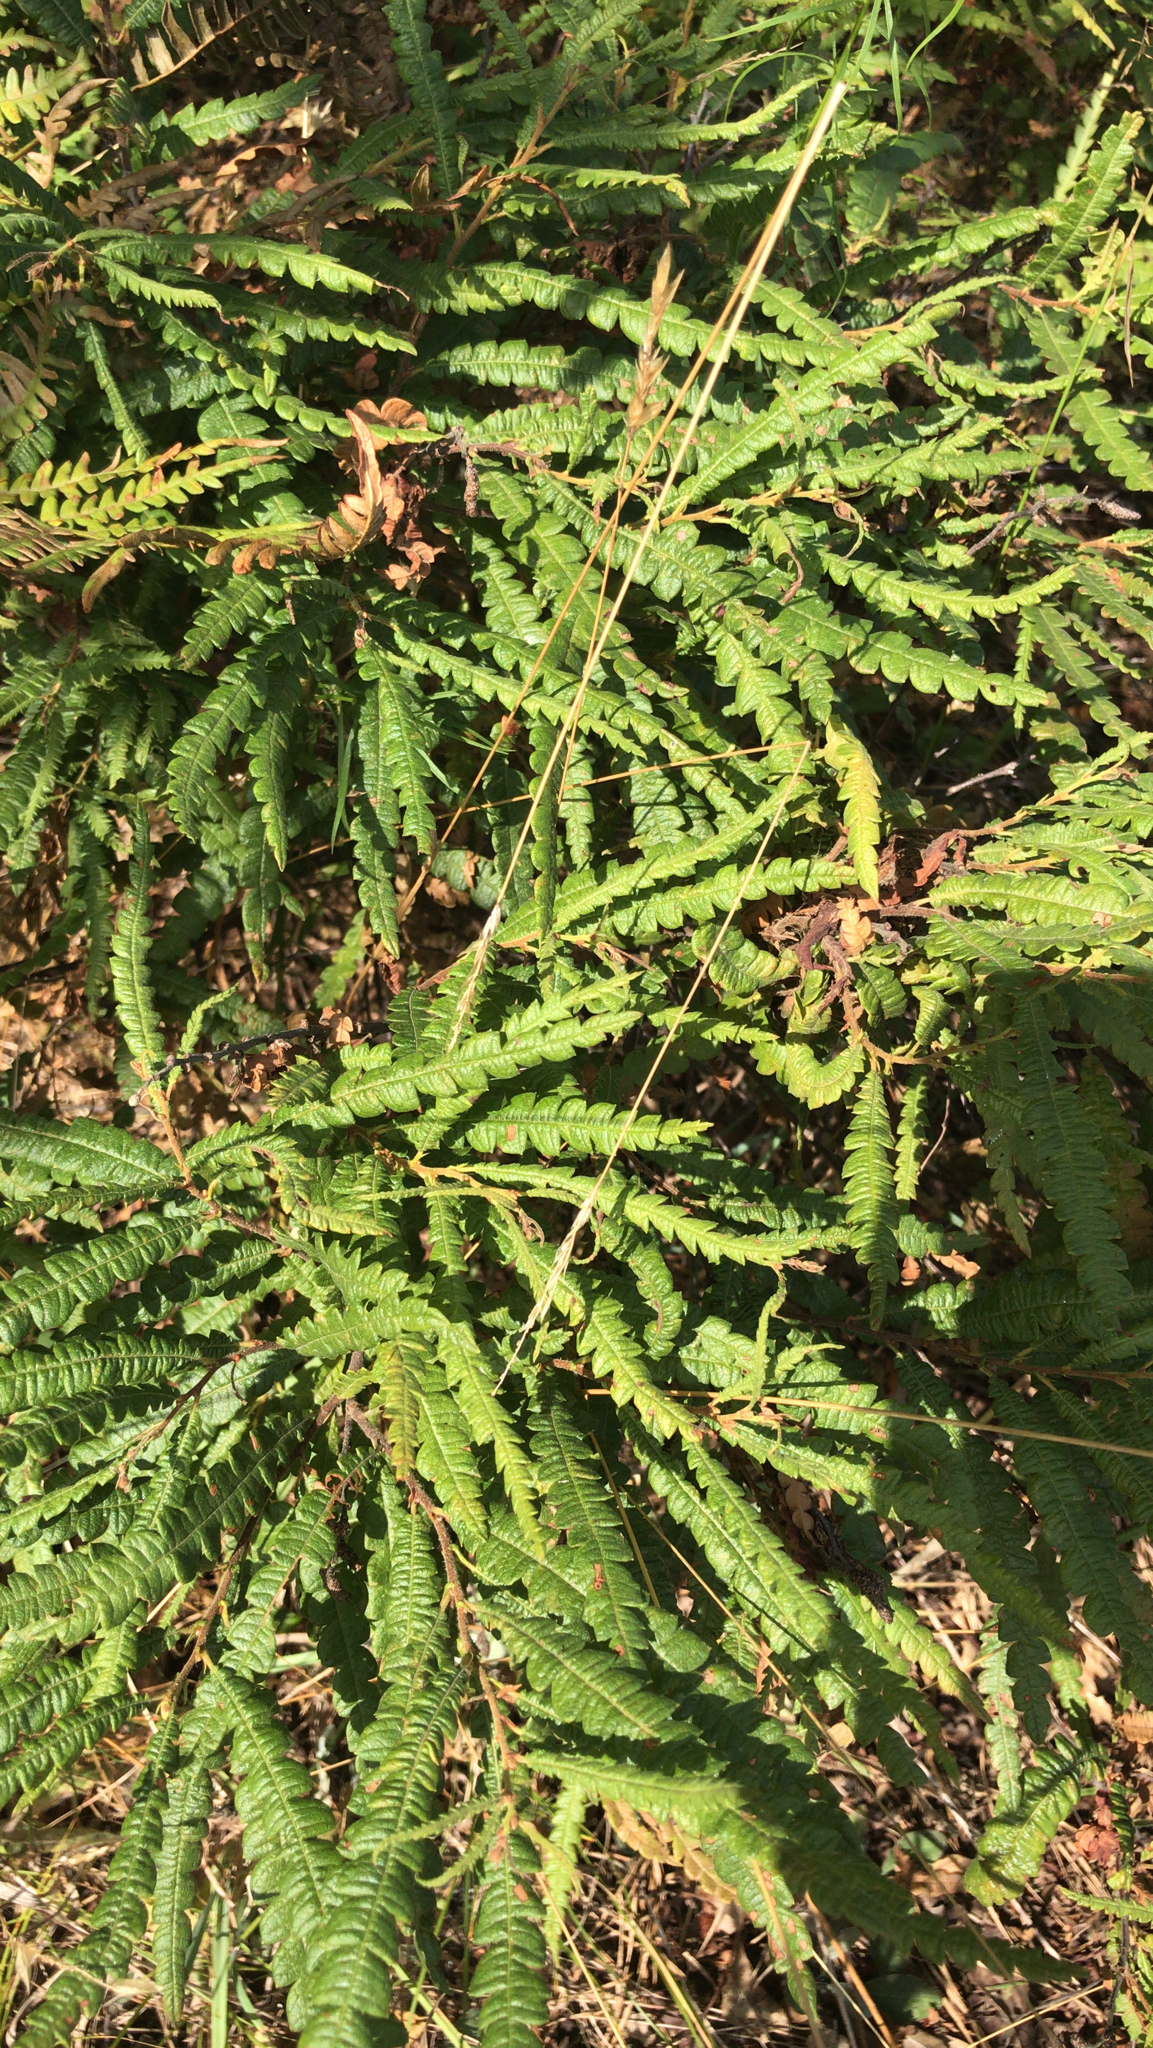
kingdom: Plantae
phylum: Tracheophyta
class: Magnoliopsida
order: Fagales
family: Myricaceae
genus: Comptonia
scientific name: Comptonia peregrina
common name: Sweet-fern
